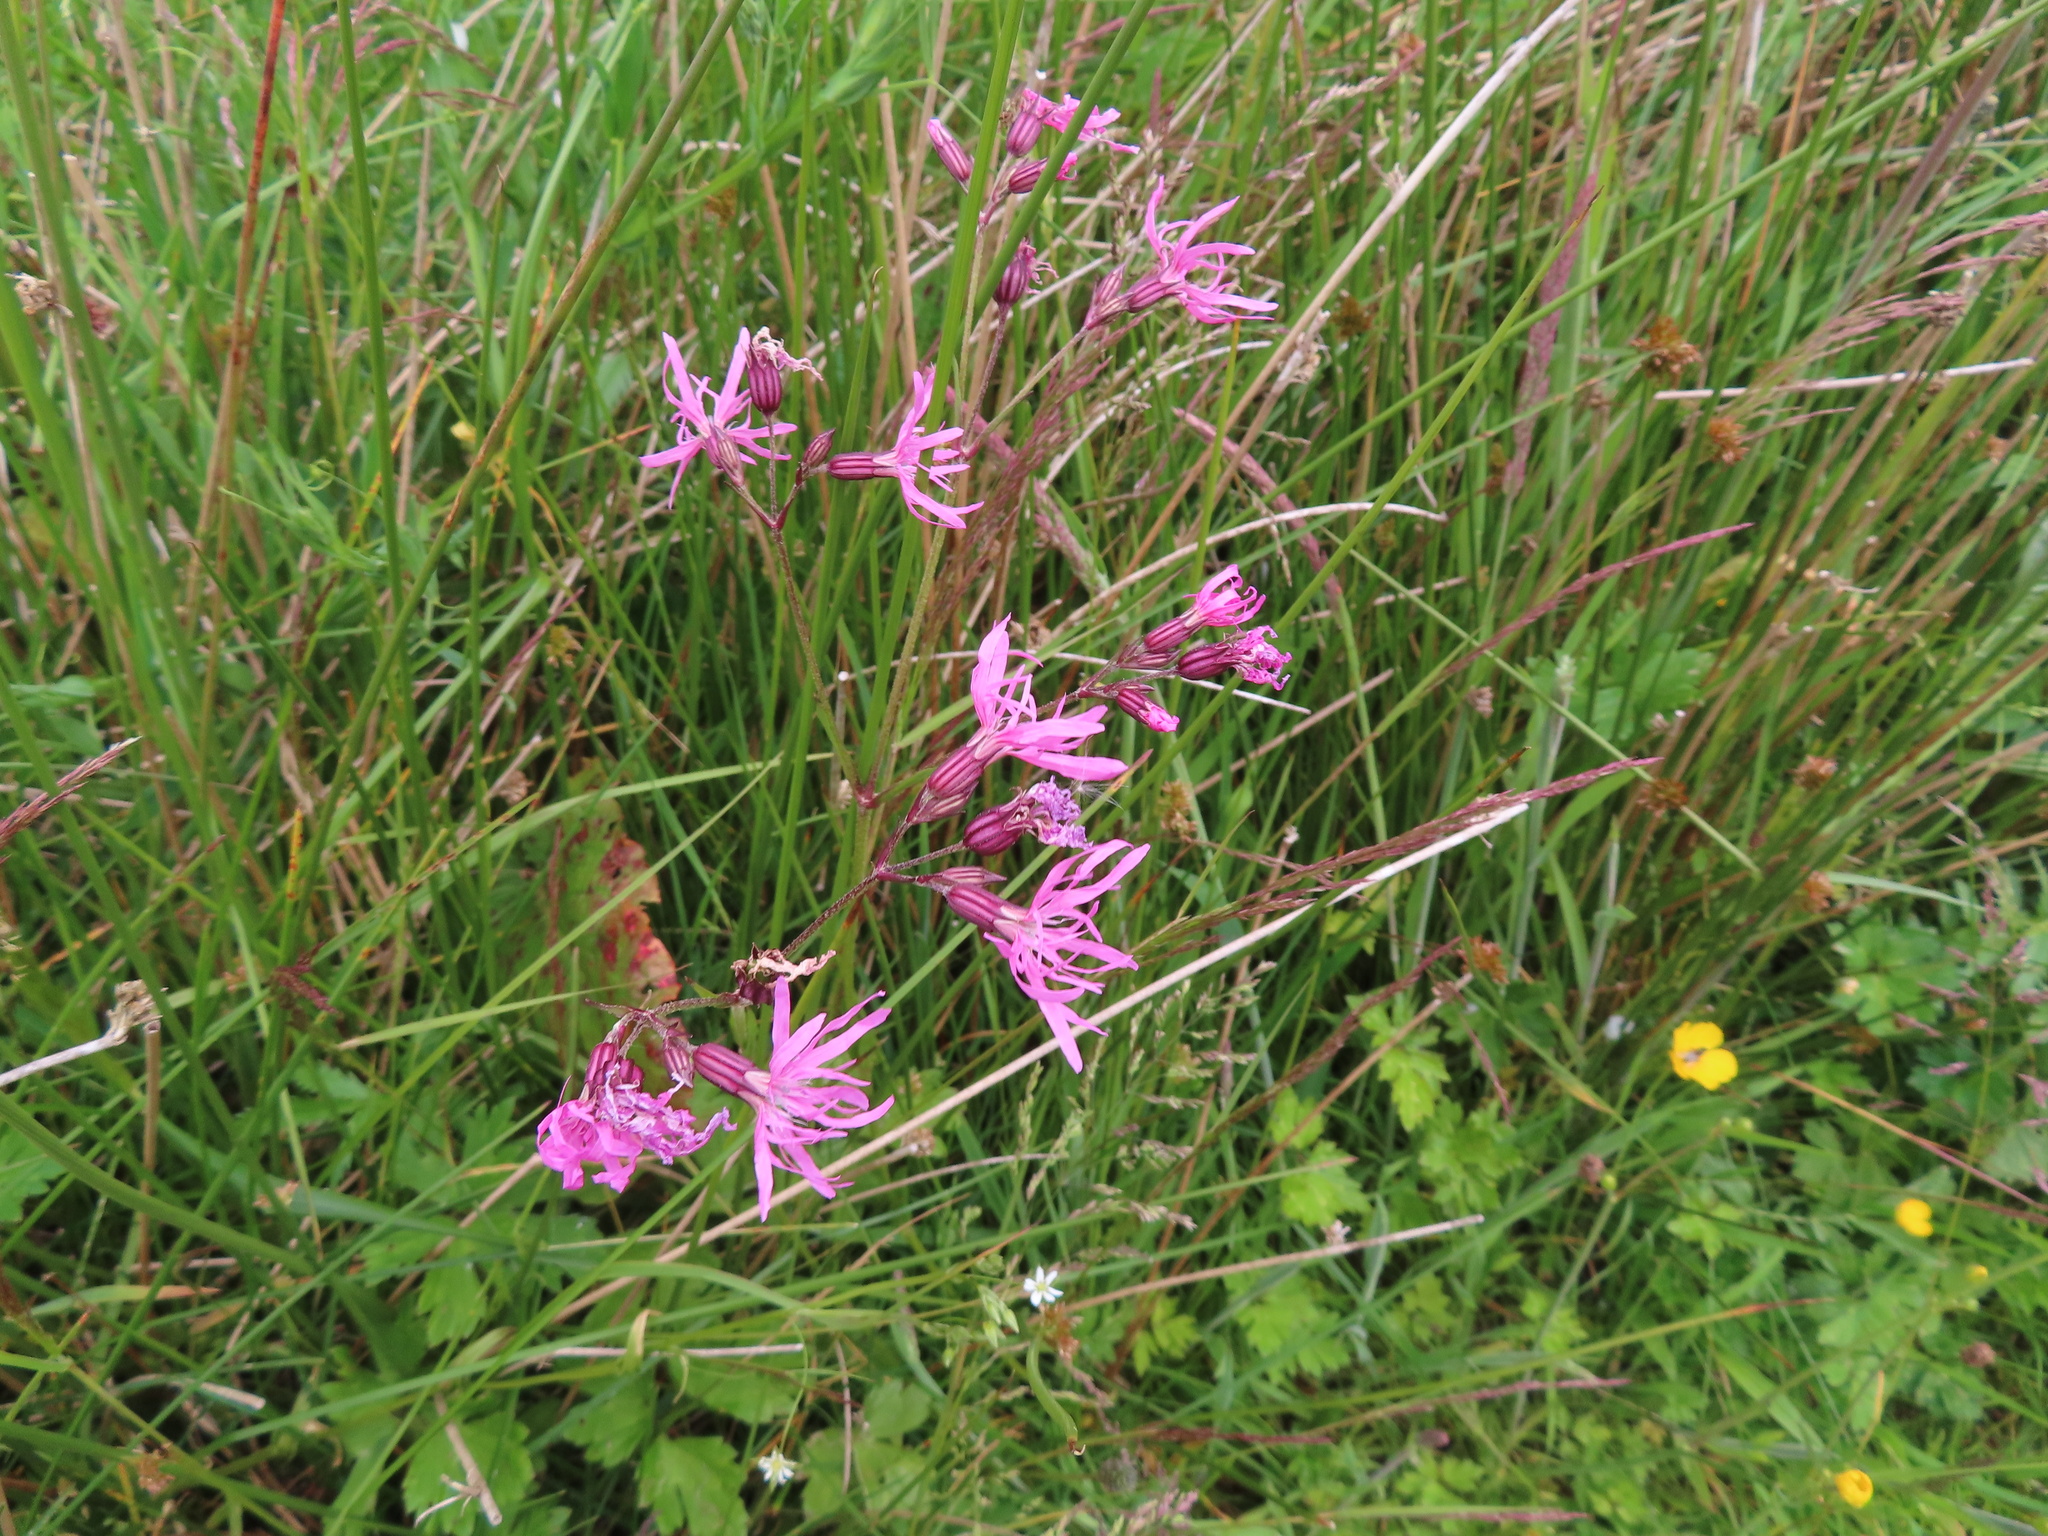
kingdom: Plantae
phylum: Tracheophyta
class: Magnoliopsida
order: Caryophyllales
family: Caryophyllaceae
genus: Silene
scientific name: Silene flos-cuculi
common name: Ragged-robin
